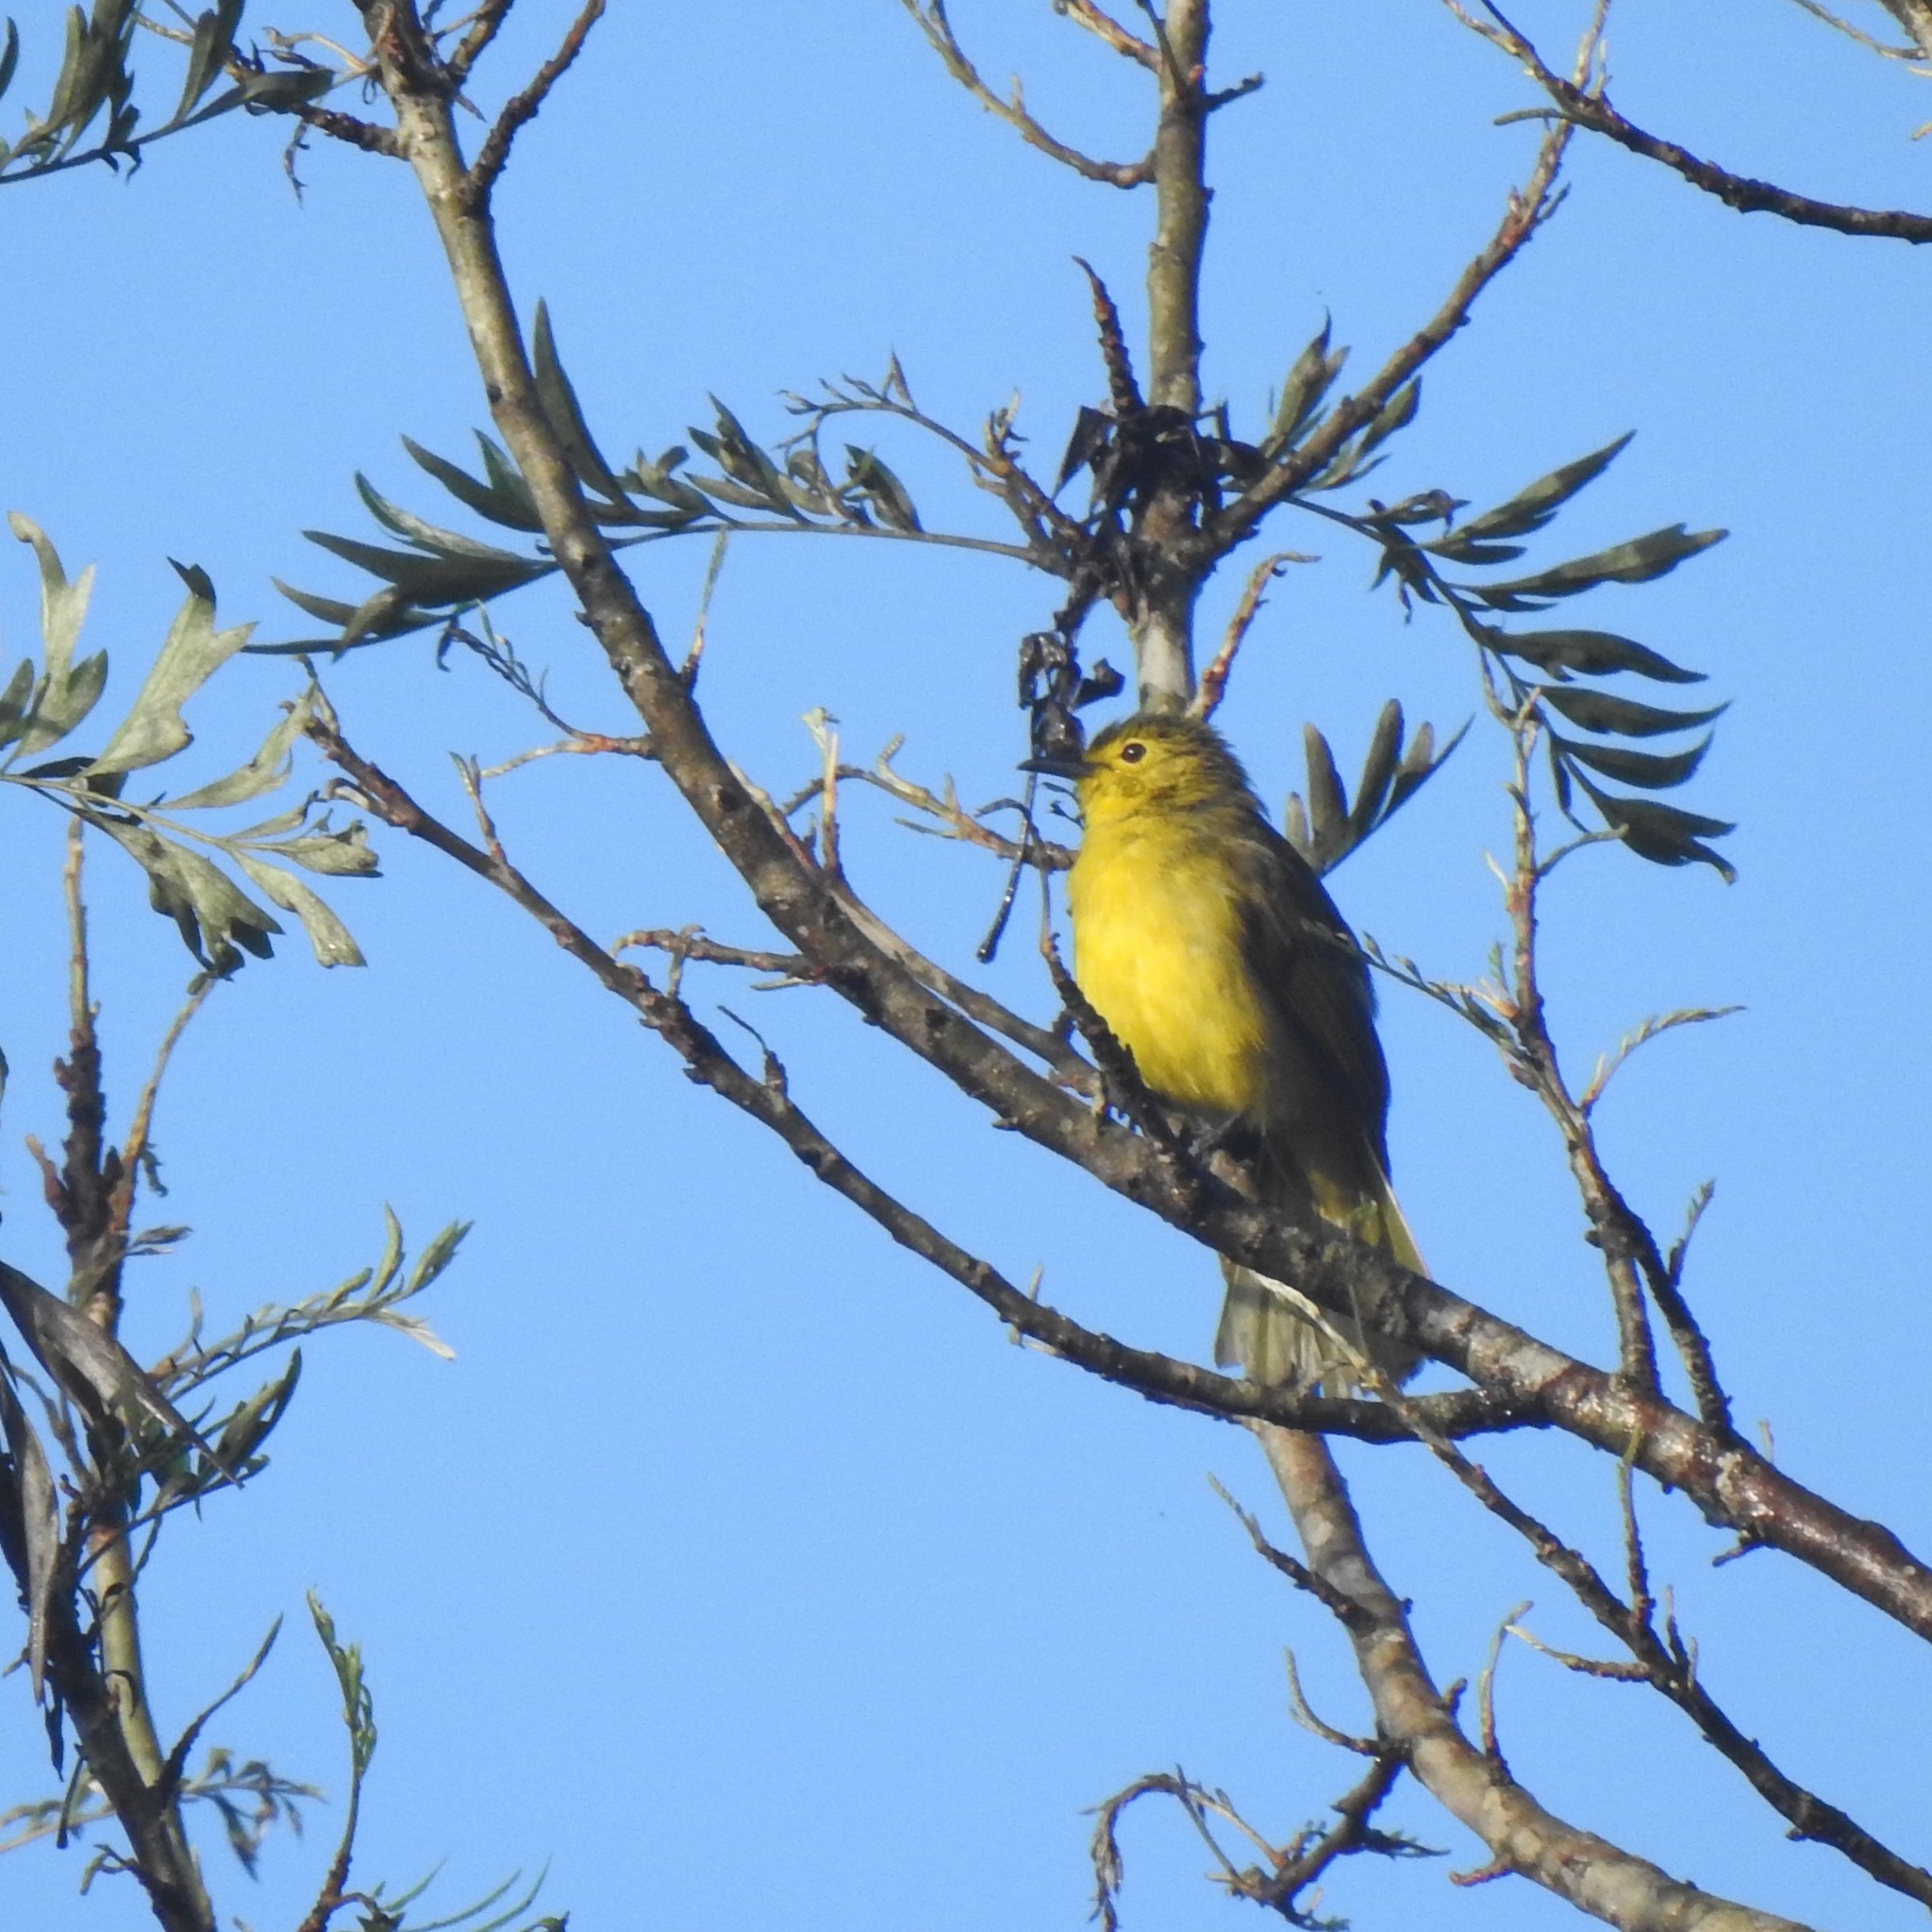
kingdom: Animalia
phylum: Chordata
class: Aves
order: Passeriformes
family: Pycnonotidae
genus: Acritillas
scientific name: Acritillas indica
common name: Yellow-browed bulbul
